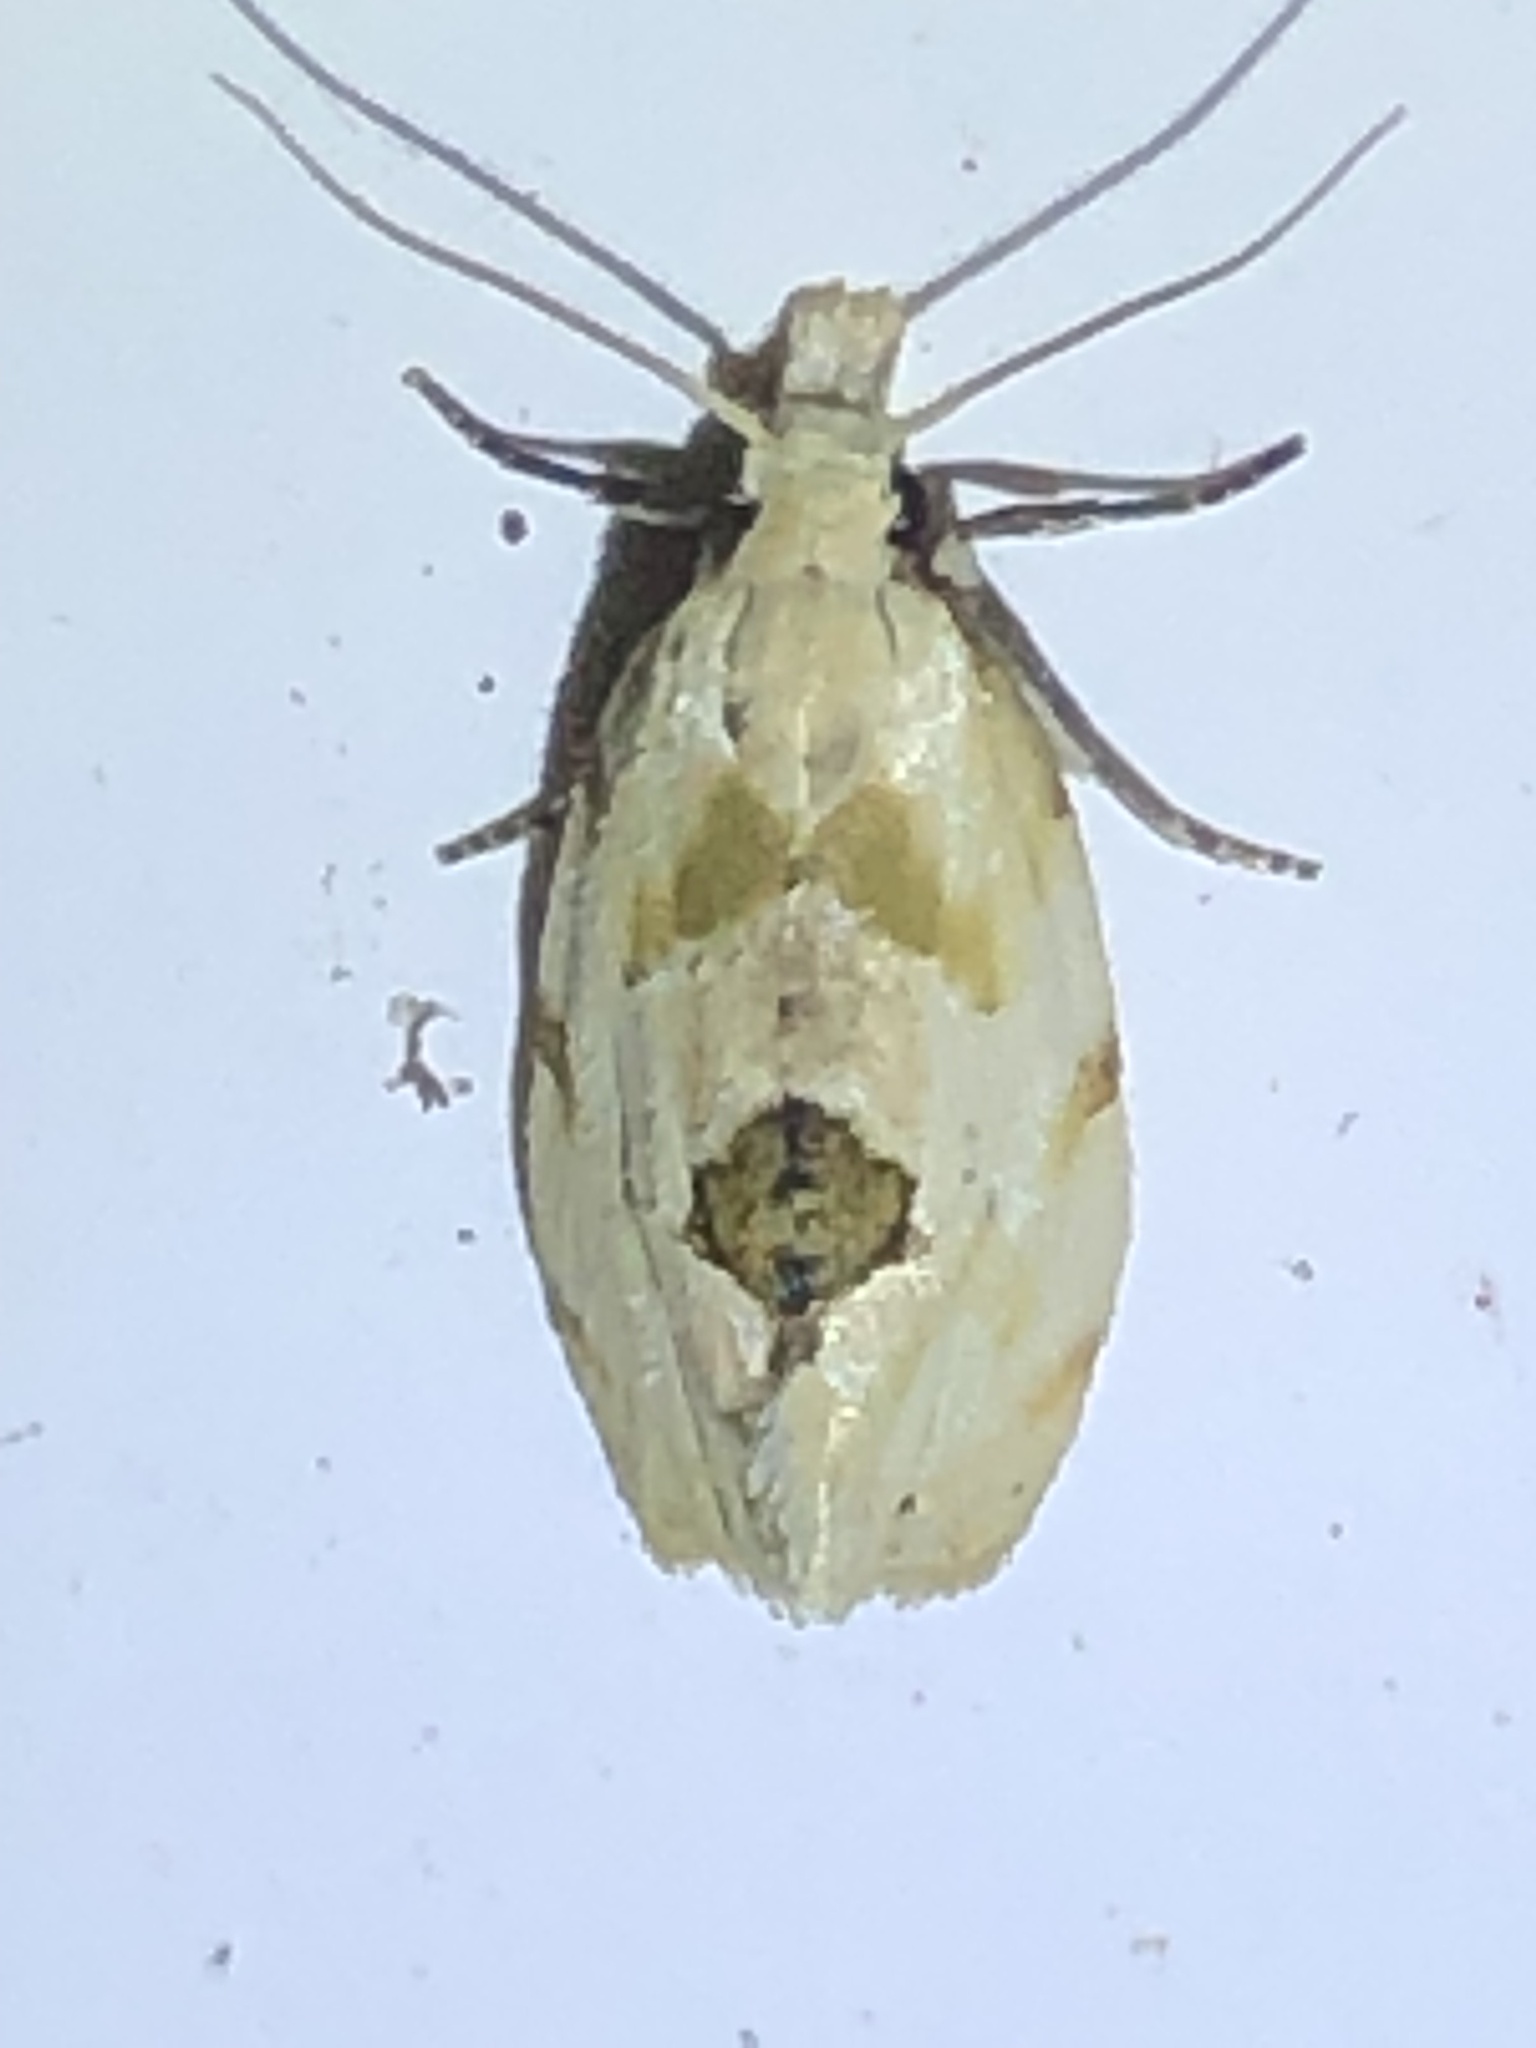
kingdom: Animalia
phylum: Arthropoda
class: Insecta
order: Lepidoptera
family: Tortricidae
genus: Aethes
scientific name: Aethes angustana
